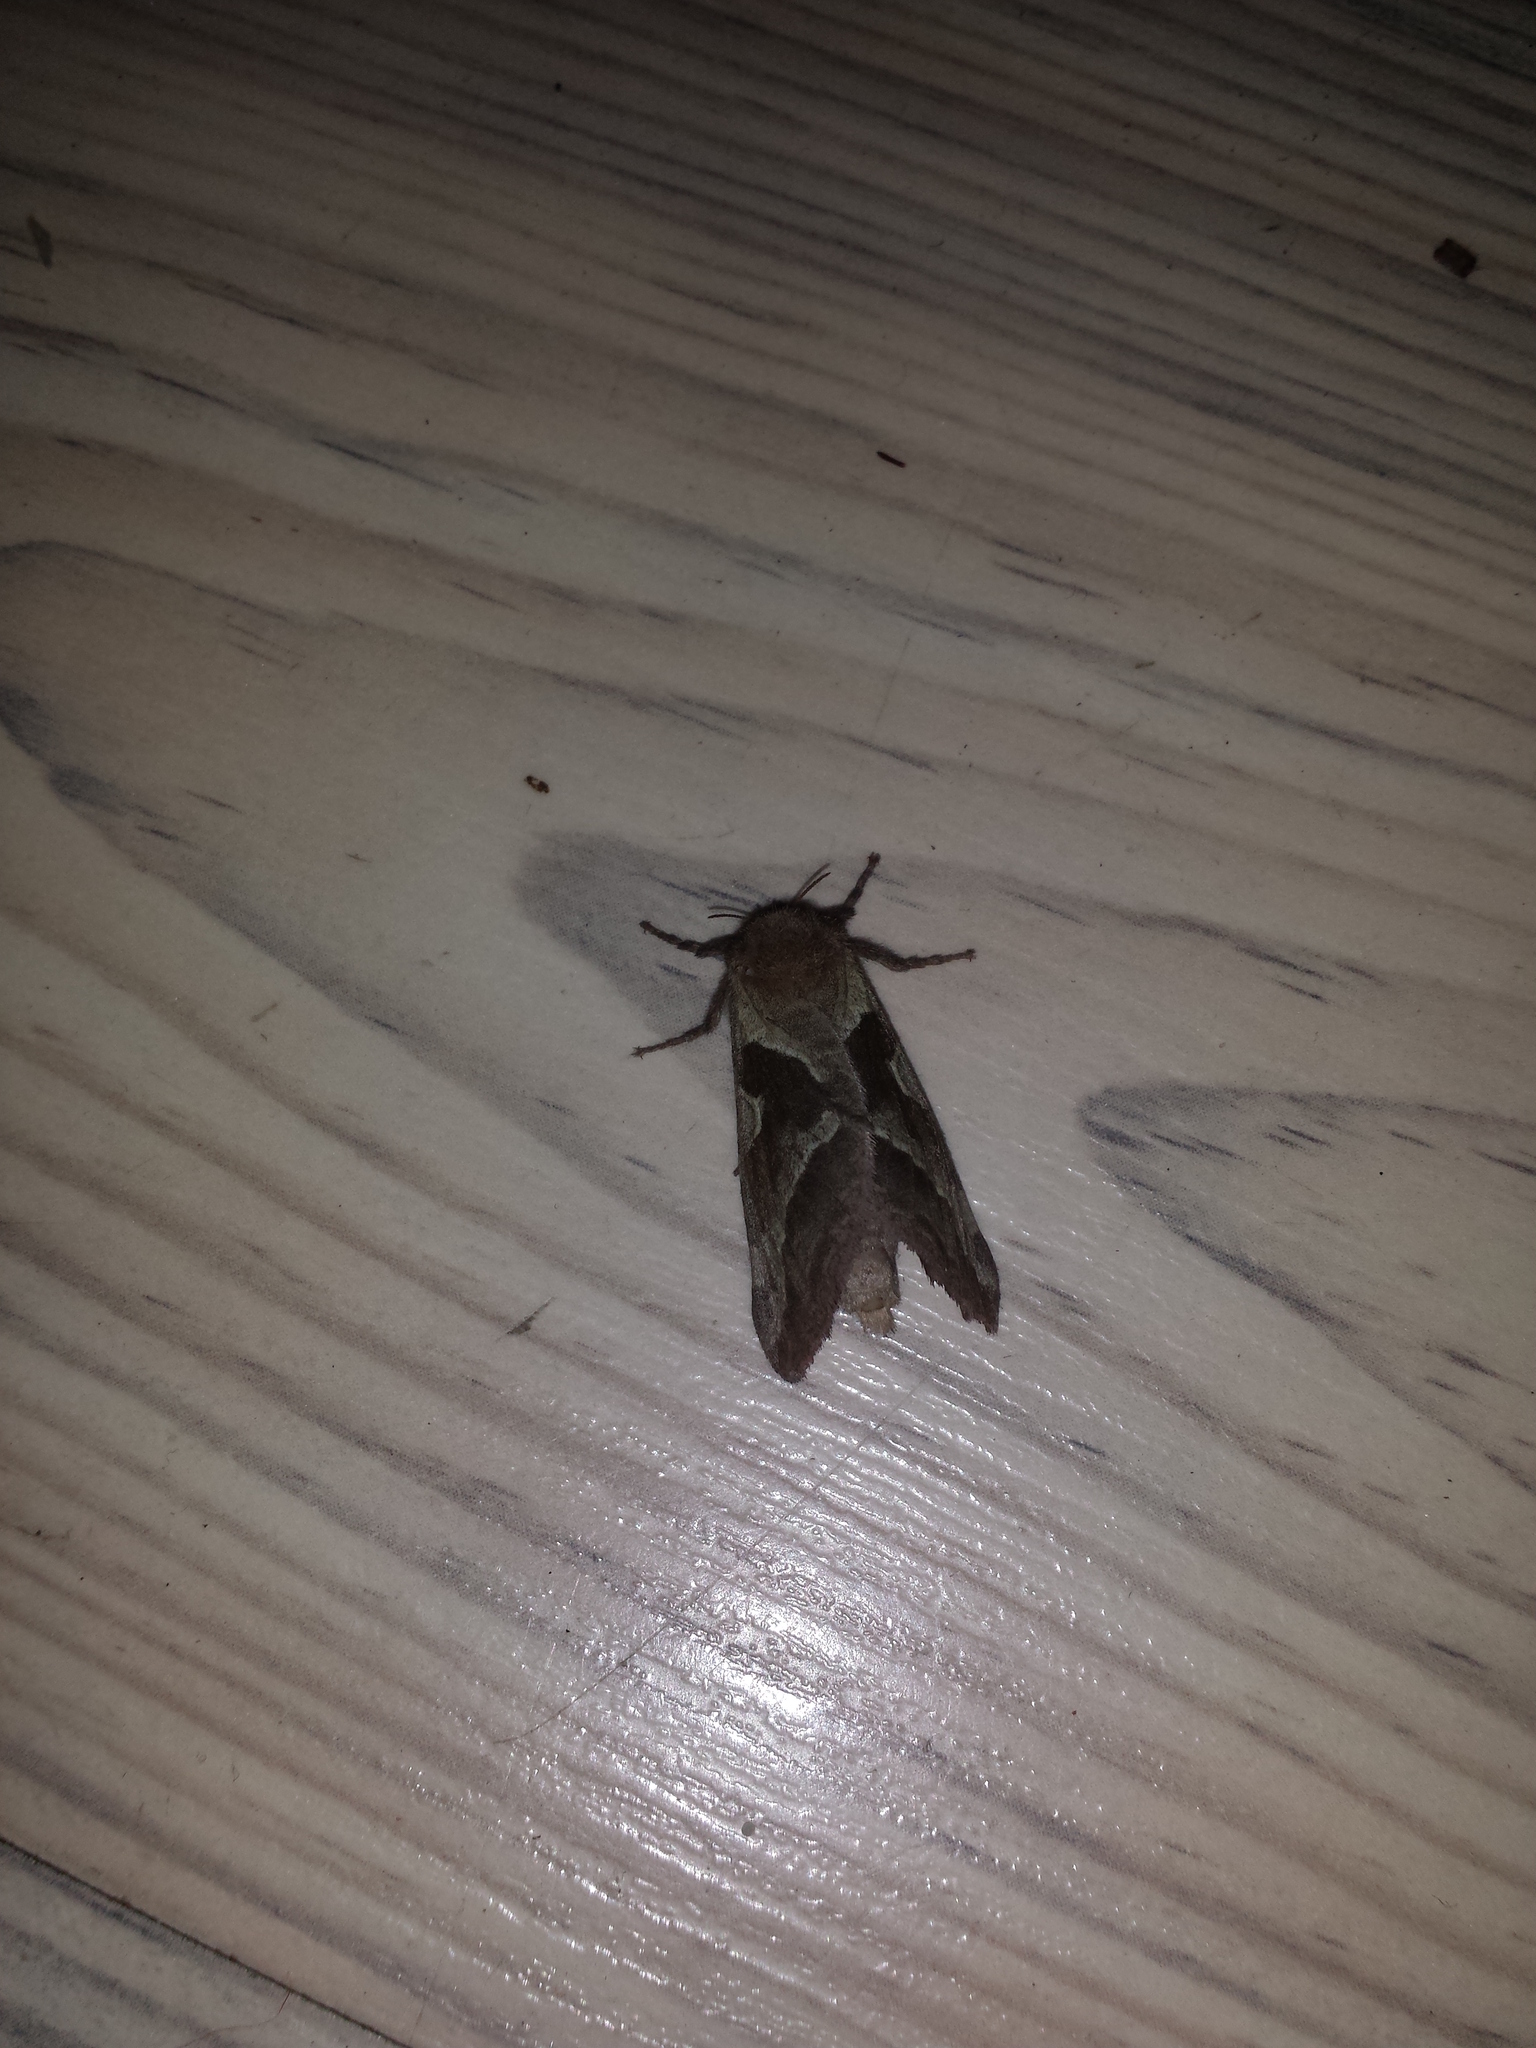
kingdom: Animalia
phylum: Arthropoda
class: Insecta
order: Lepidoptera
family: Hepialidae
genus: Triodia
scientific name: Triodia sylvina
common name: Orange swift
